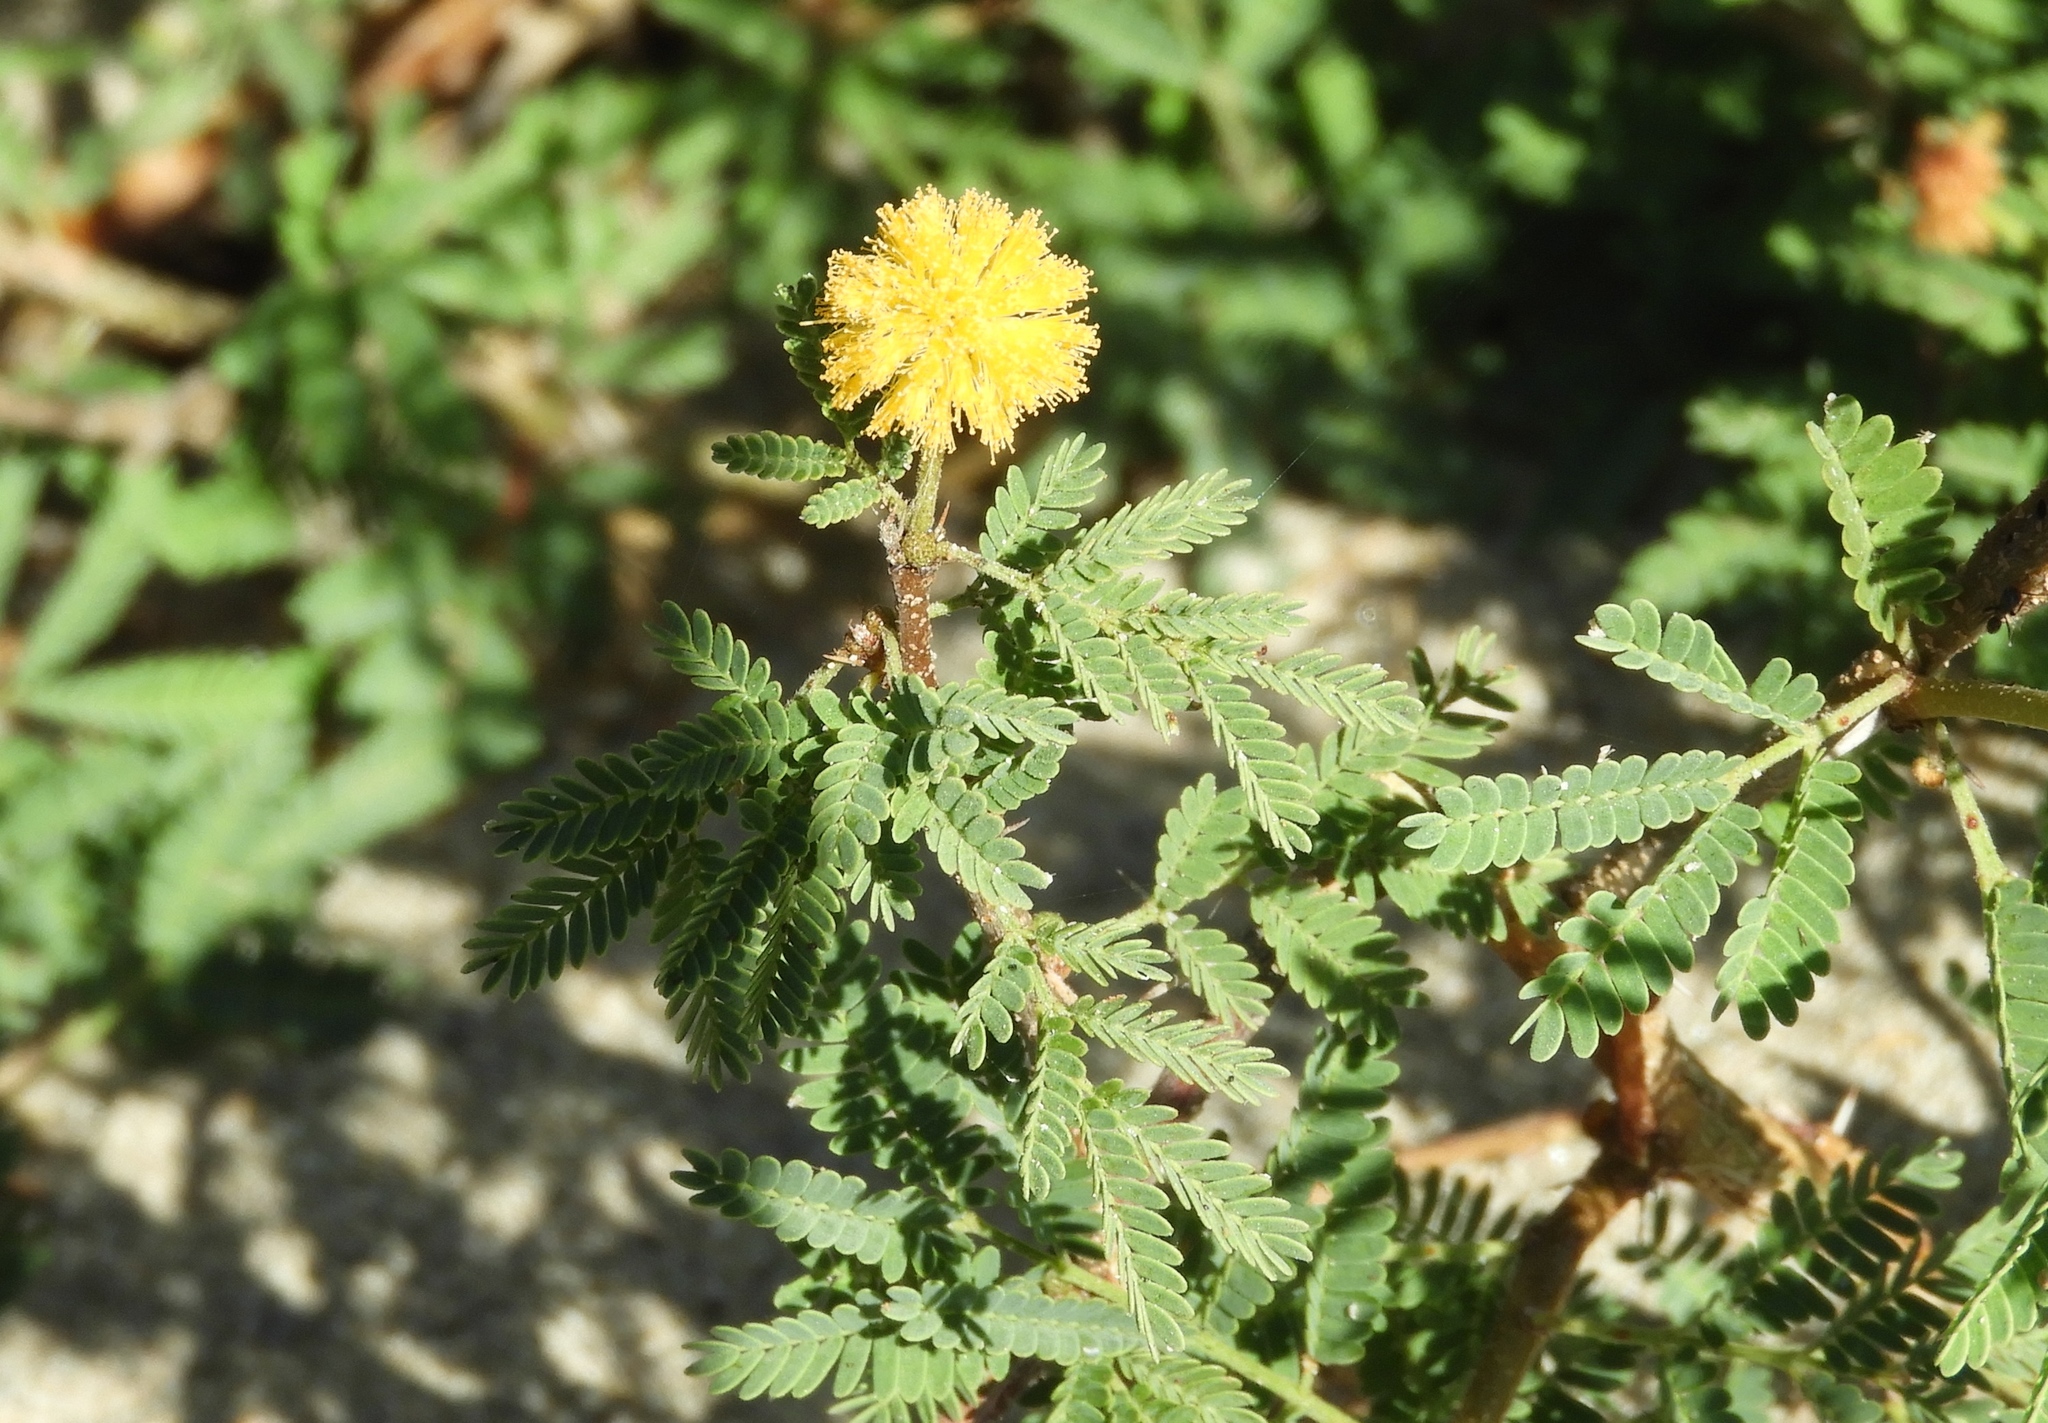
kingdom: Plantae
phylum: Tracheophyta
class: Magnoliopsida
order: Fabales
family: Fabaceae
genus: Vachellia
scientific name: Vachellia farnesiana
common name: Sweet acacia
